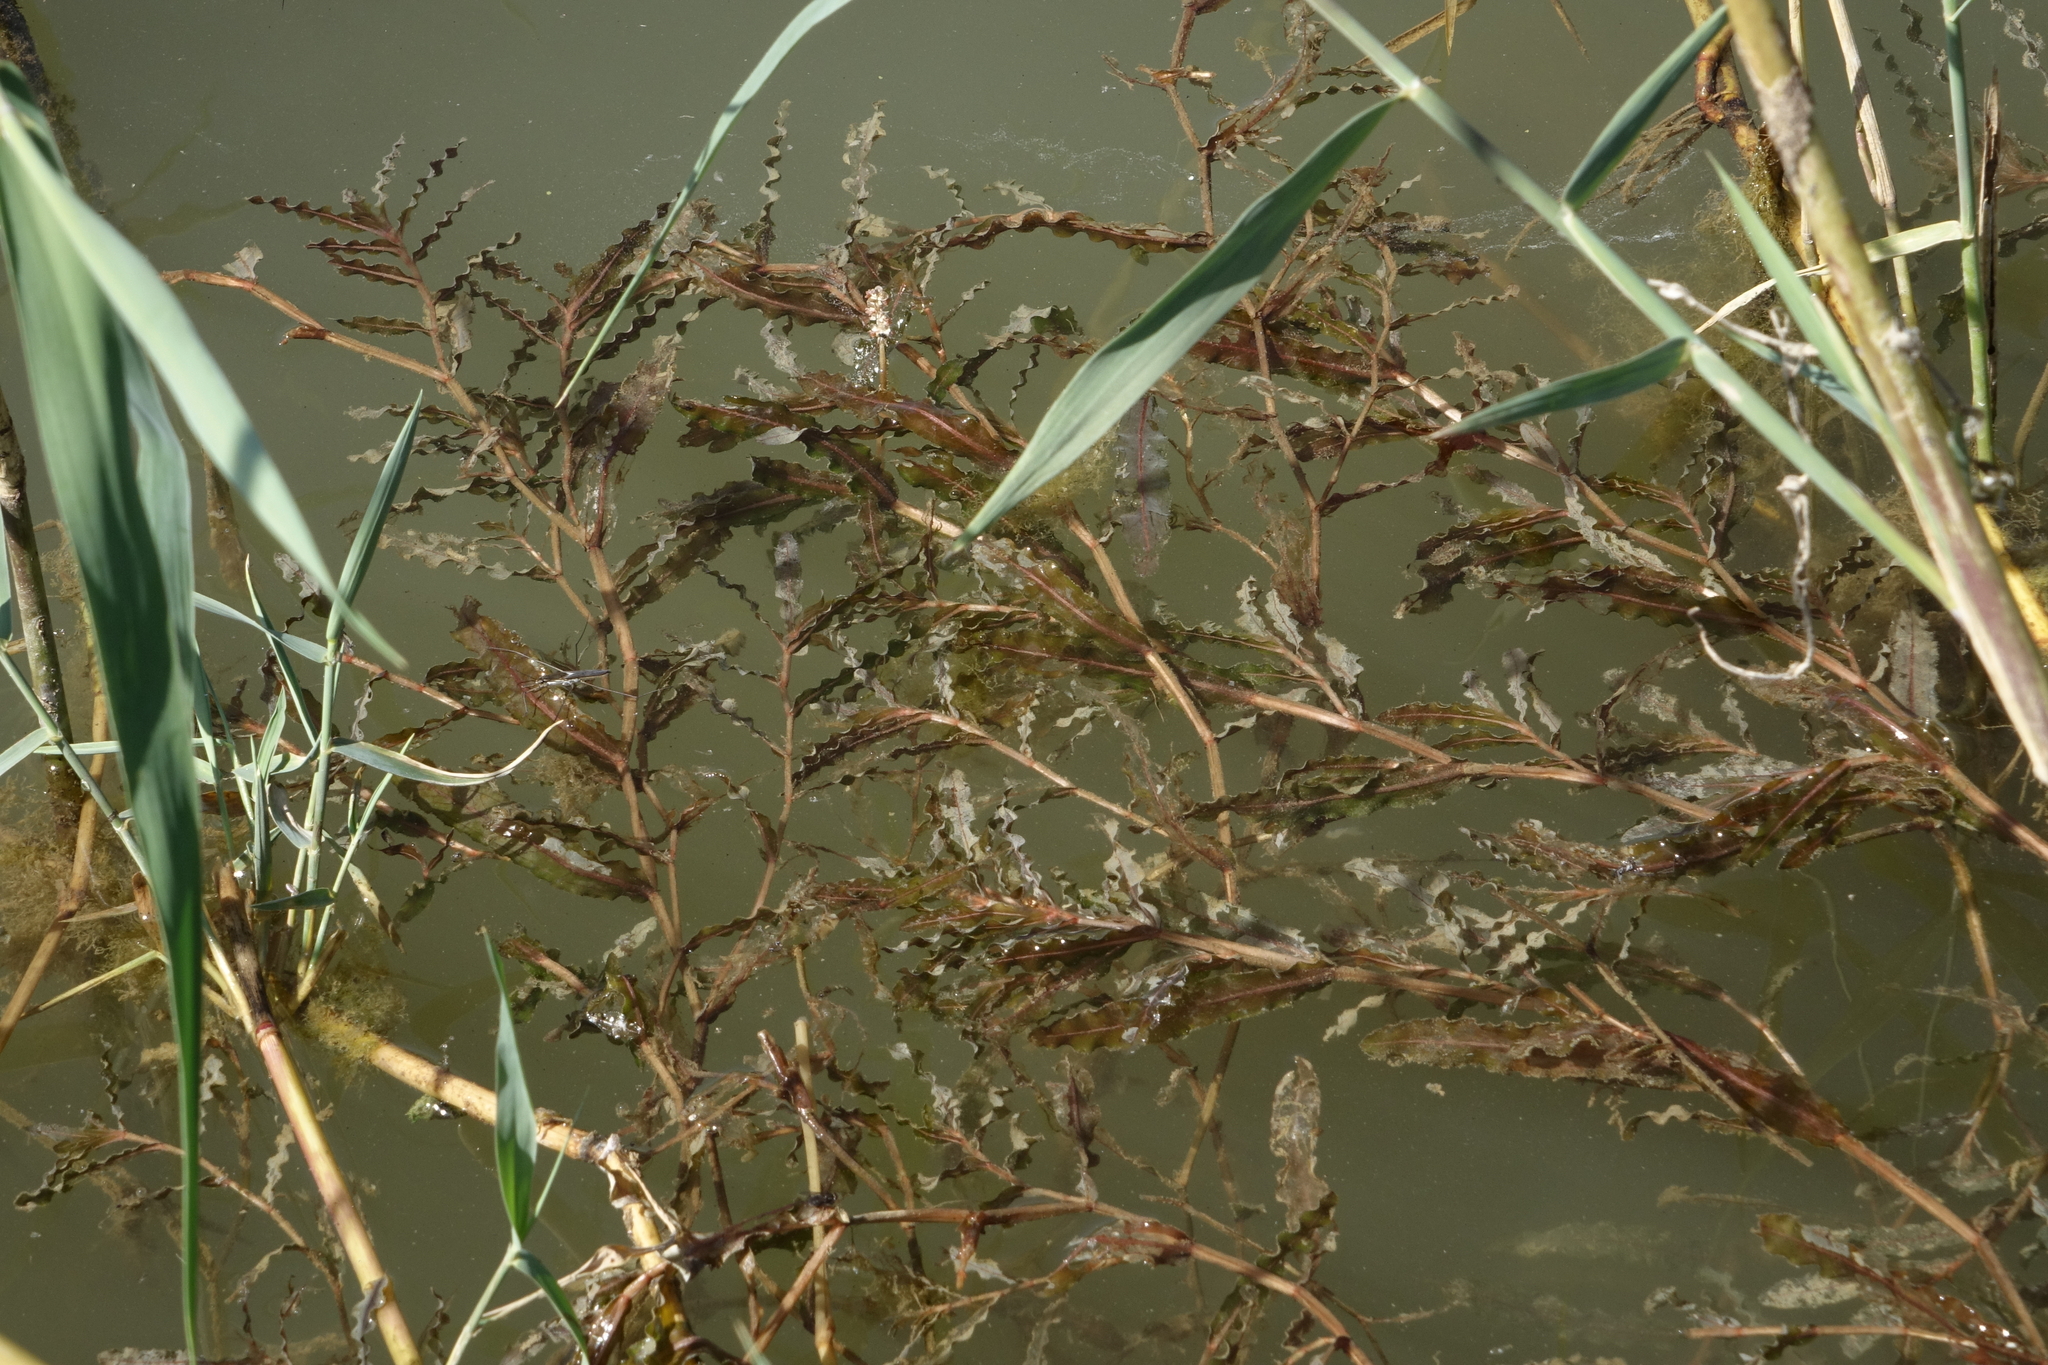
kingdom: Plantae
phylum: Tracheophyta
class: Liliopsida
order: Alismatales
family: Potamogetonaceae
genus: Potamogeton
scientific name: Potamogeton crispus
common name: Curled pondweed
